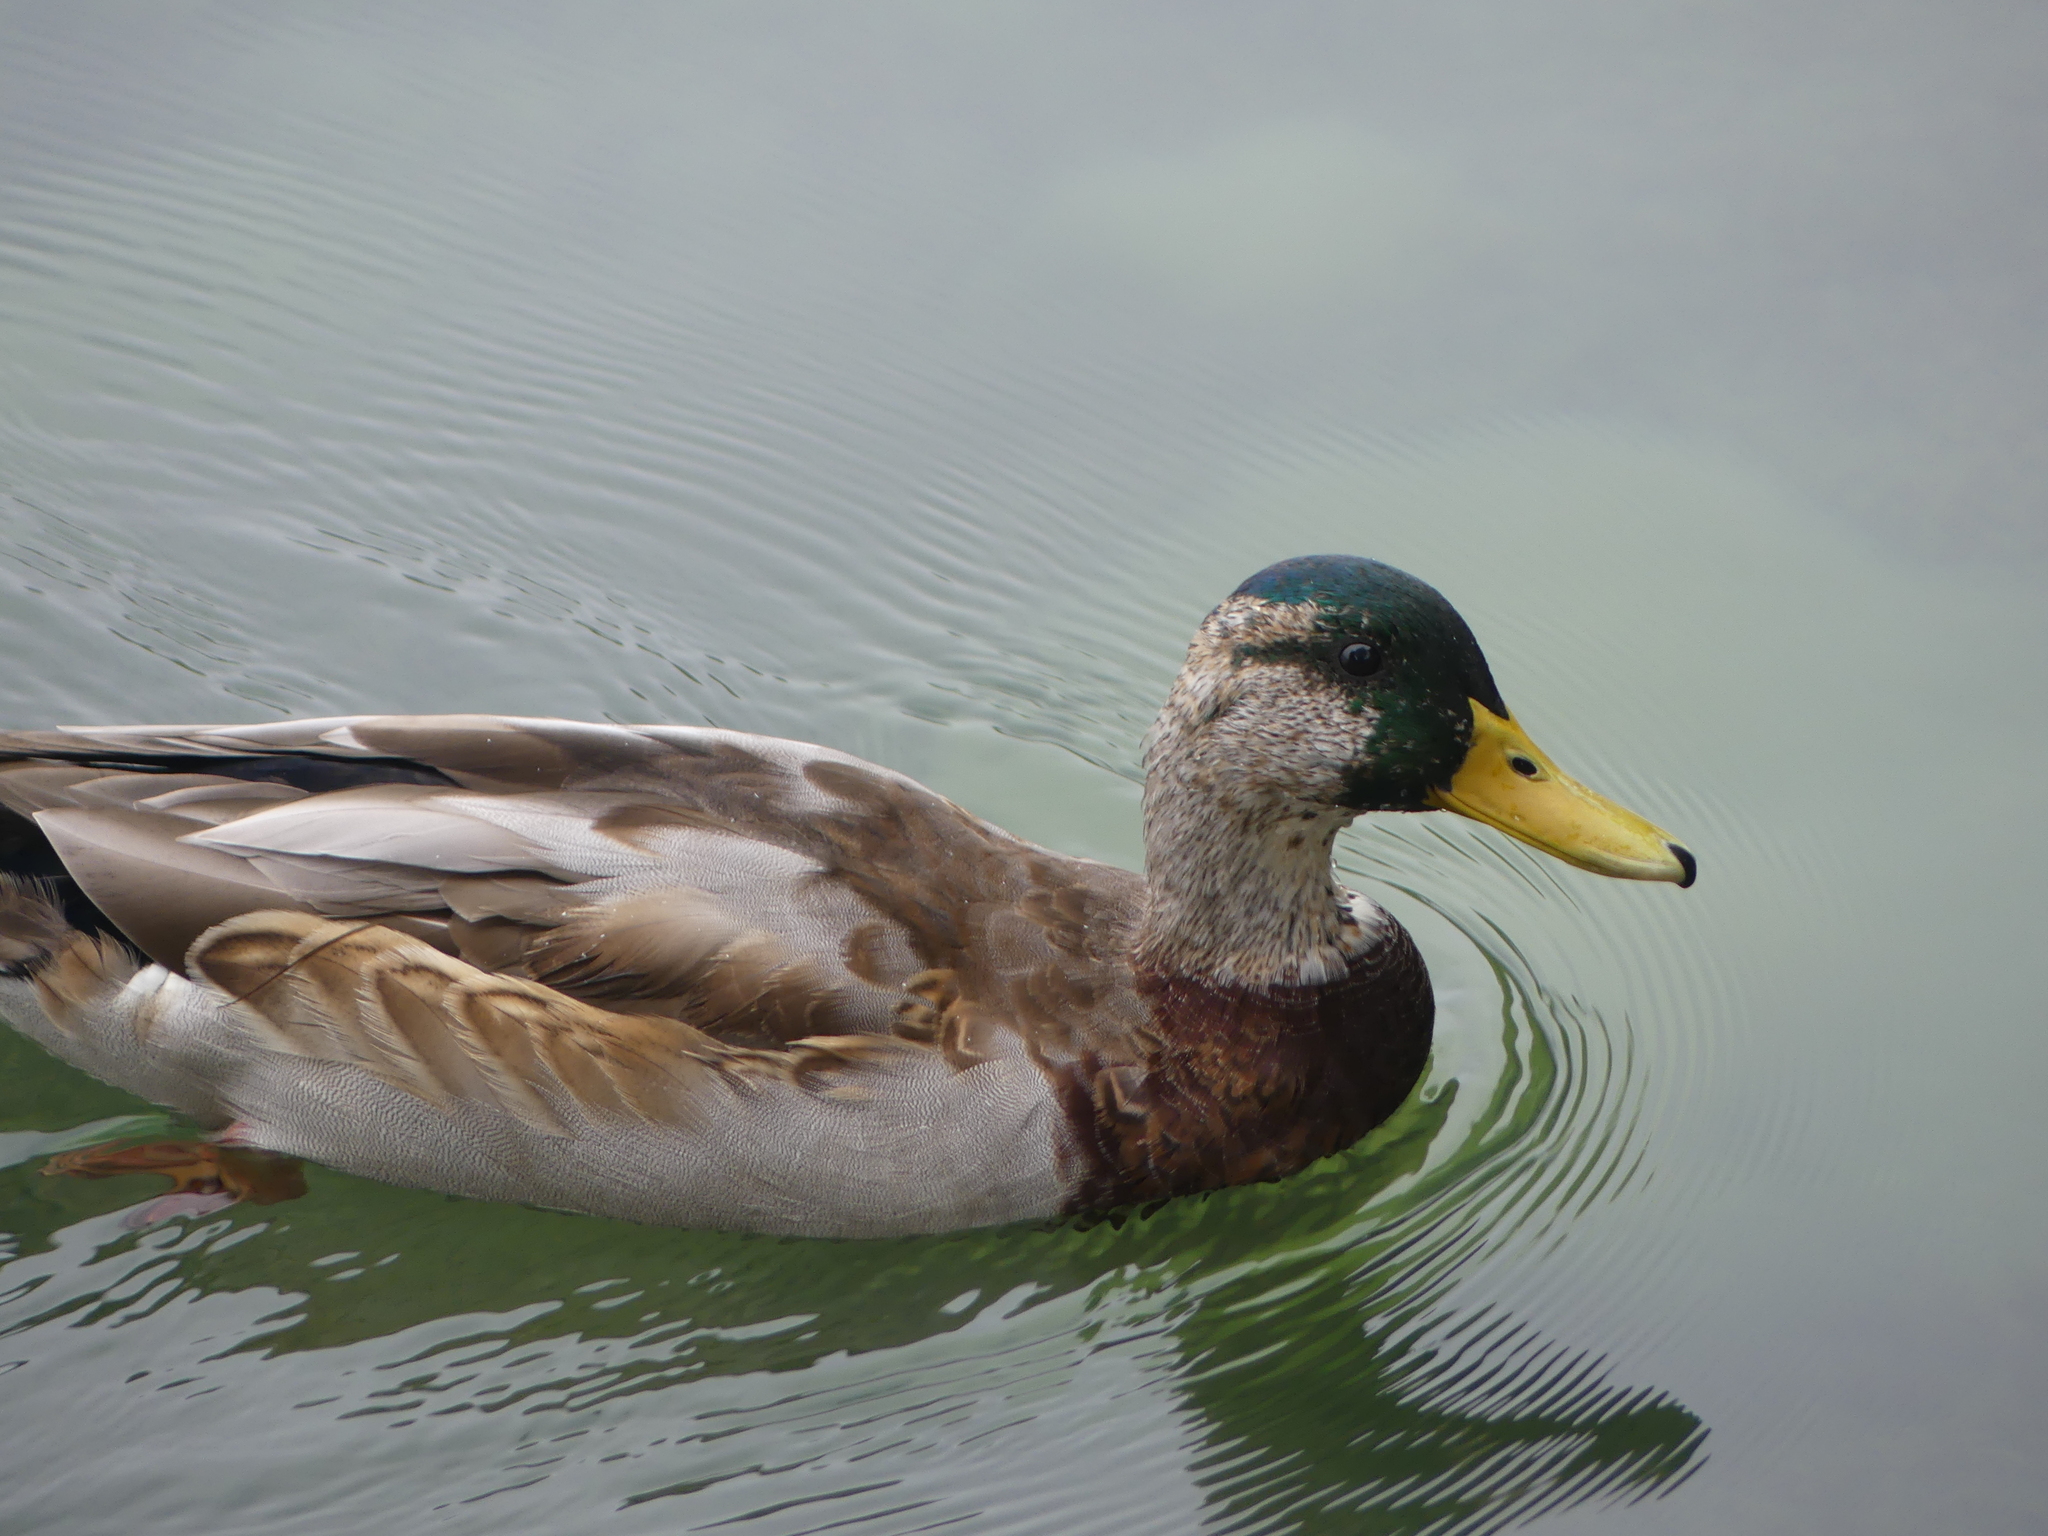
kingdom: Animalia
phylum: Chordata
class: Aves
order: Anseriformes
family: Anatidae
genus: Anas
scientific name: Anas platyrhynchos
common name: Mallard
